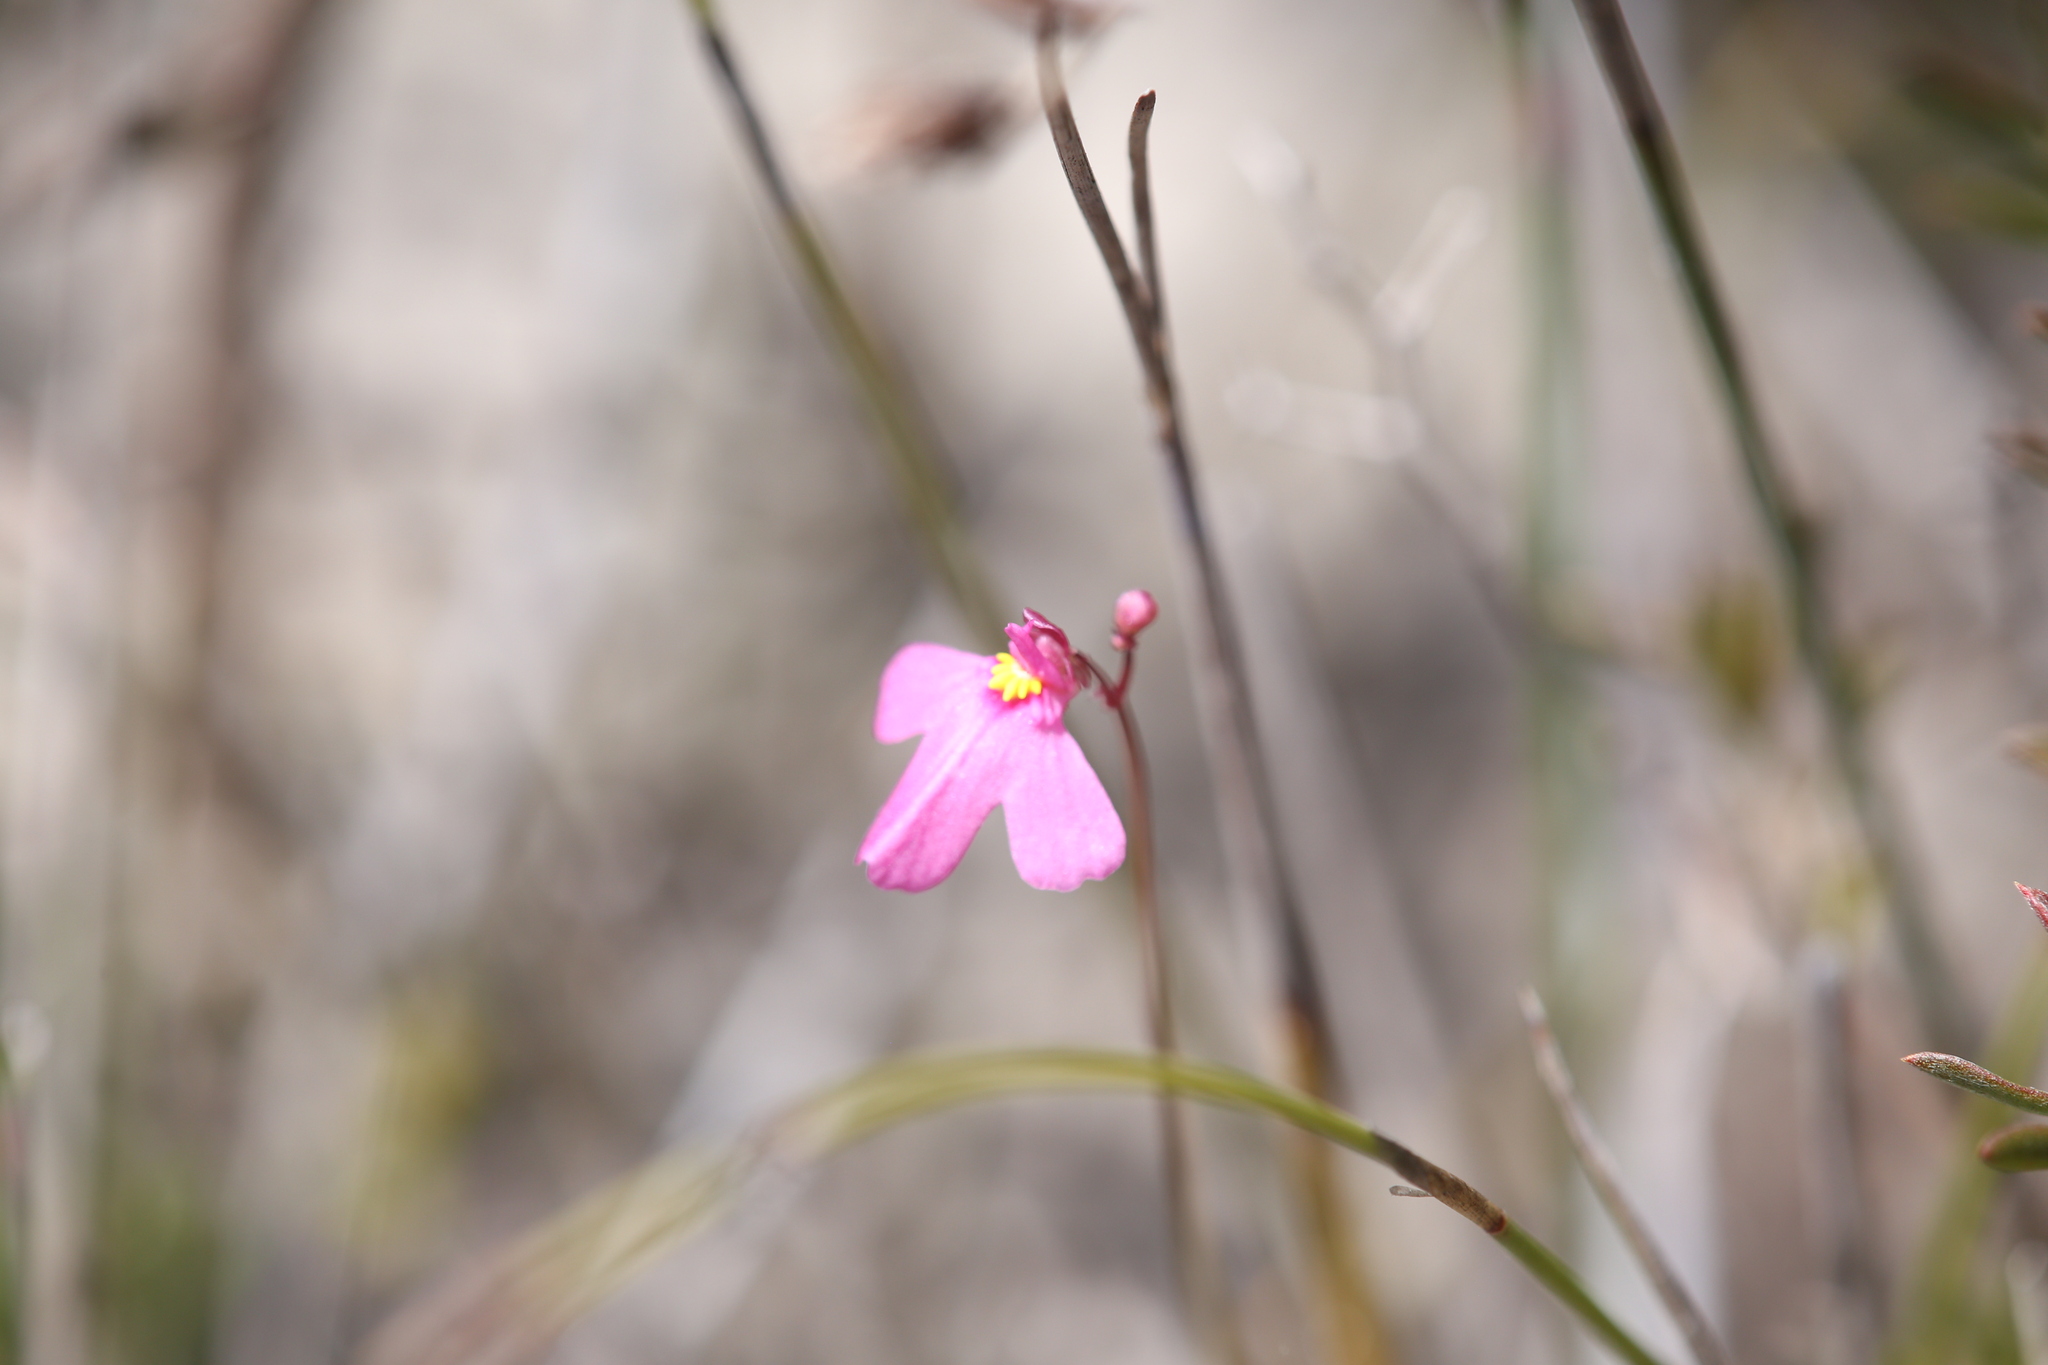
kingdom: Plantae
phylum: Tracheophyta
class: Magnoliopsida
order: Lamiales
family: Lentibulariaceae
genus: Utricularia
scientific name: Utricularia multifida
